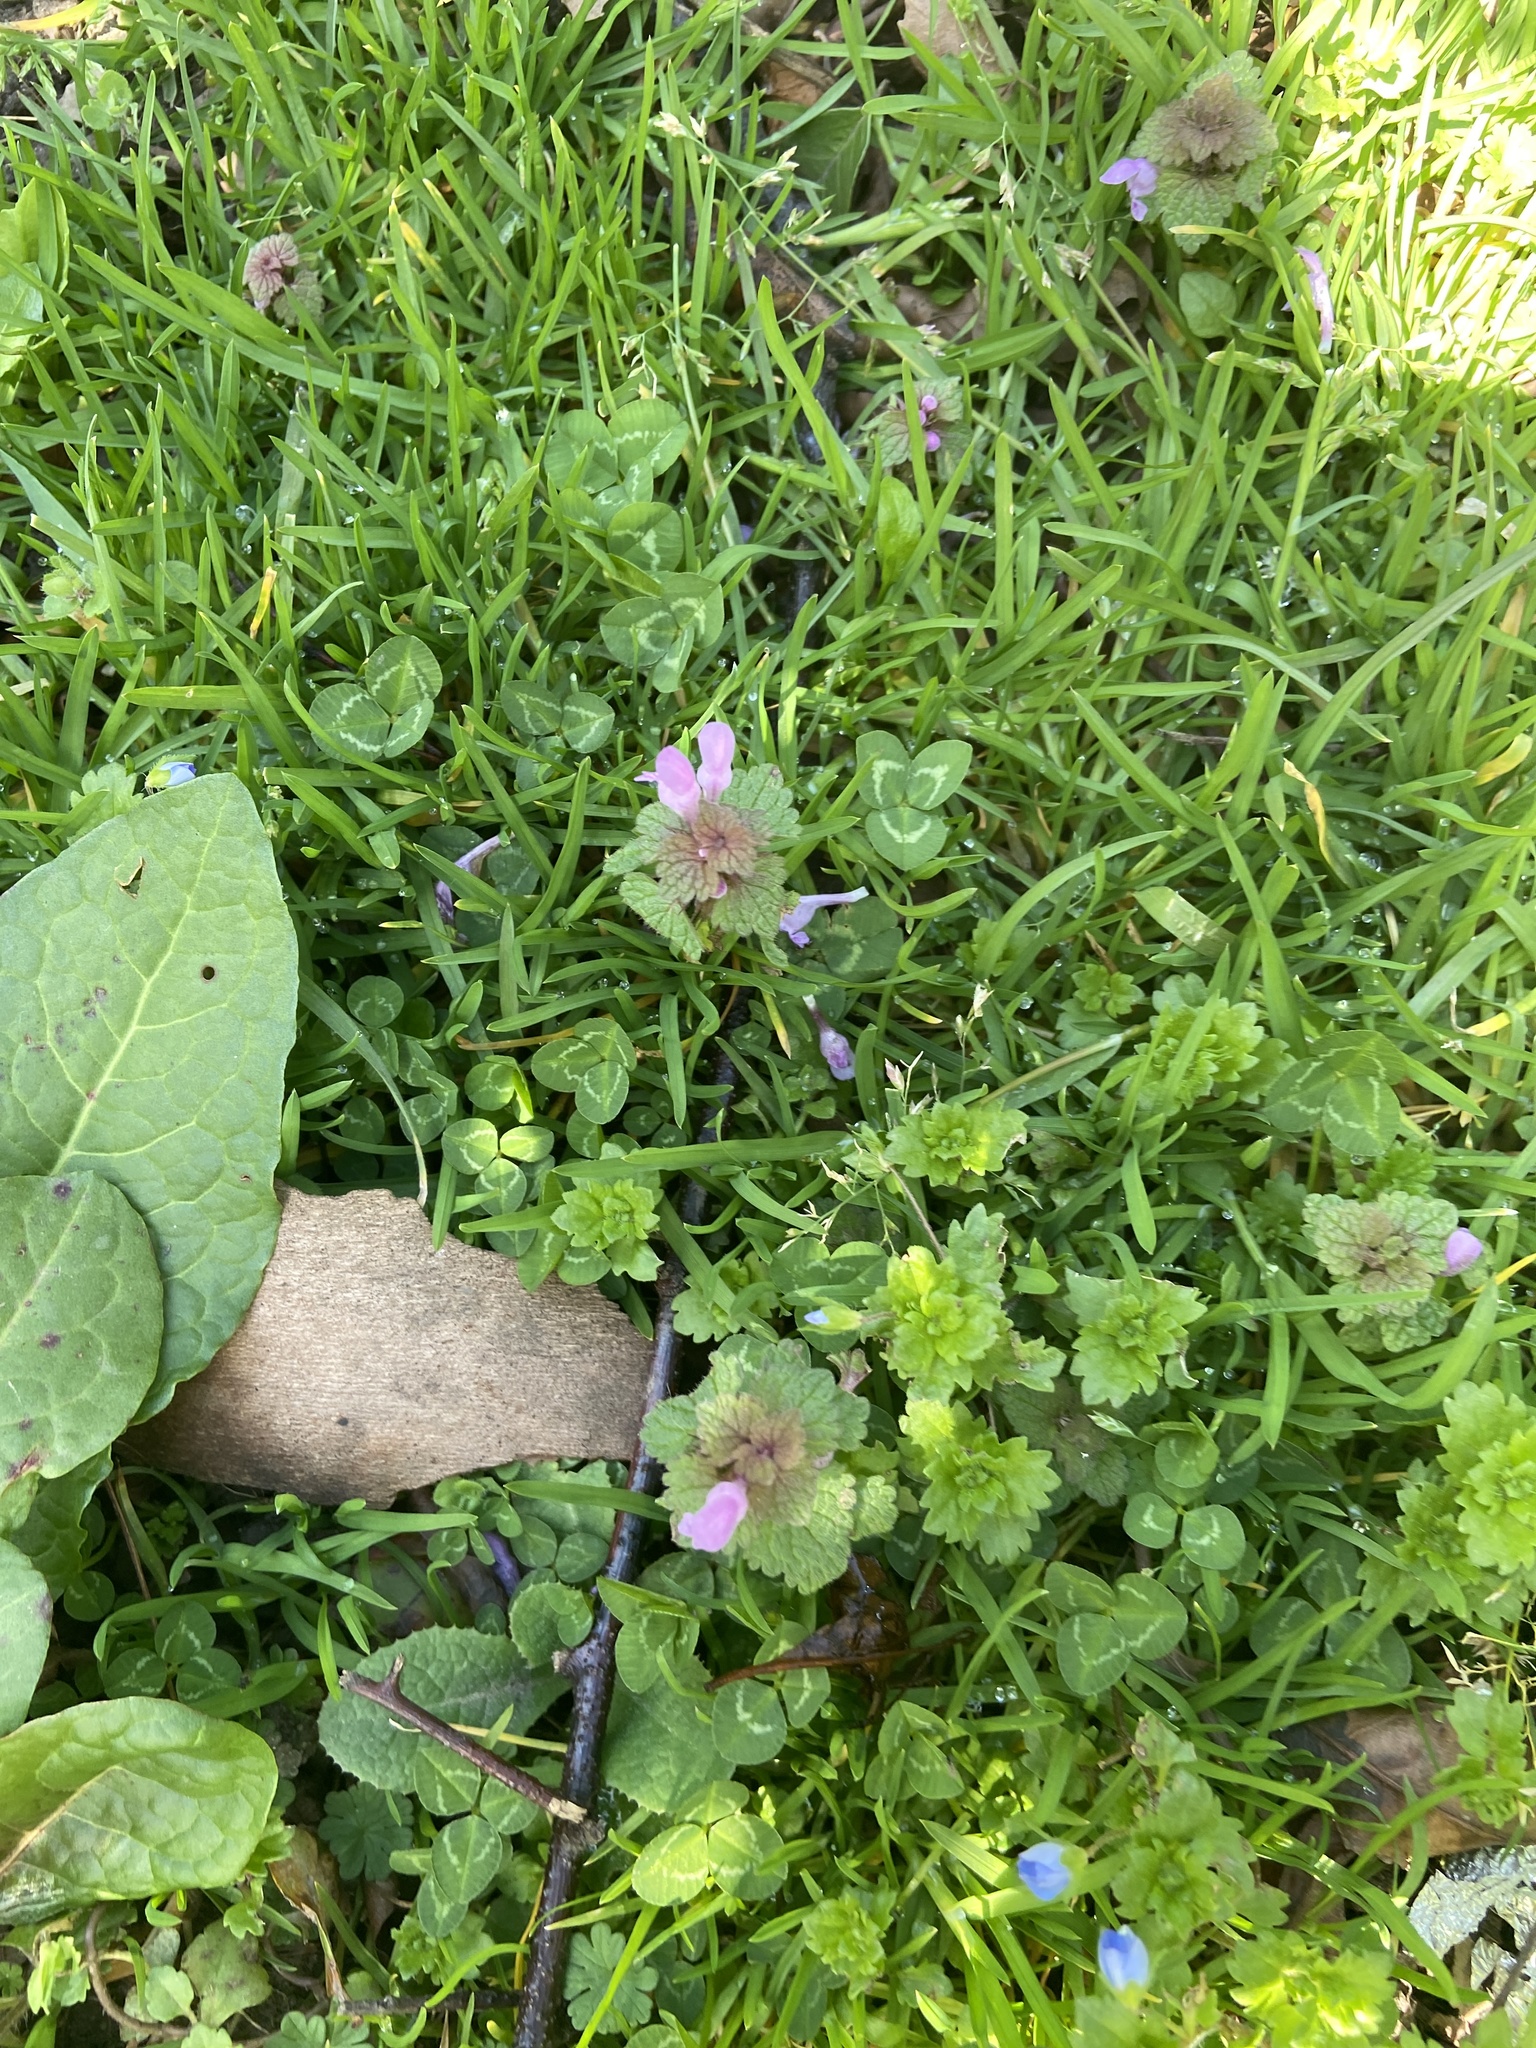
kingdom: Plantae
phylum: Tracheophyta
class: Magnoliopsida
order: Lamiales
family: Lamiaceae
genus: Lamium
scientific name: Lamium purpureum
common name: Red dead-nettle
